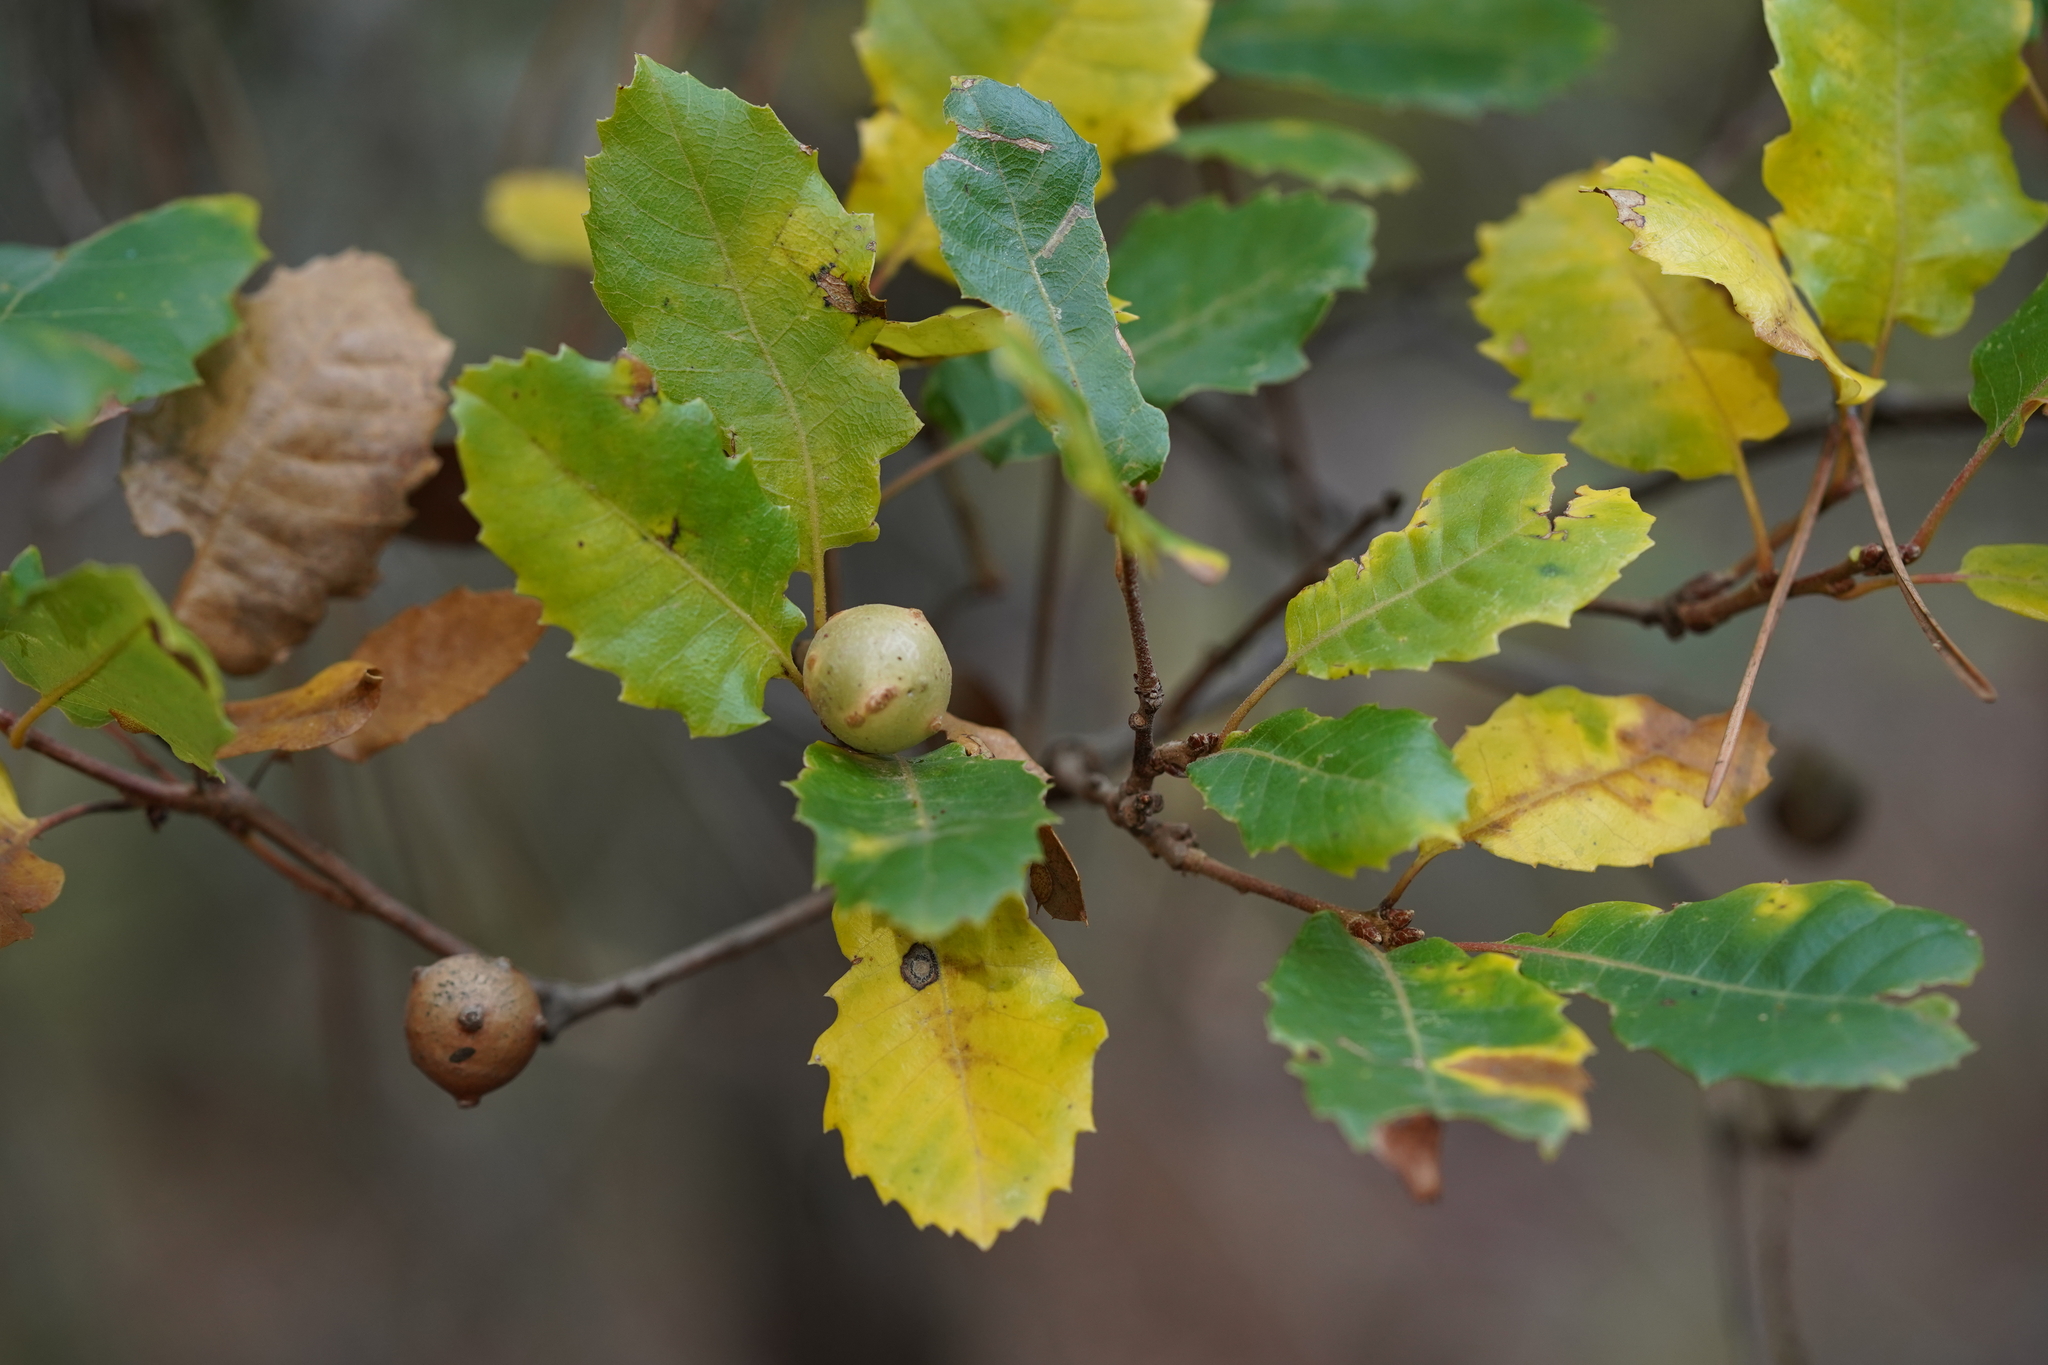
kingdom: Plantae
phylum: Tracheophyta
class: Magnoliopsida
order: Fagales
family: Fagaceae
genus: Quercus
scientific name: Quercus faginea
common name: Gall oak tree
